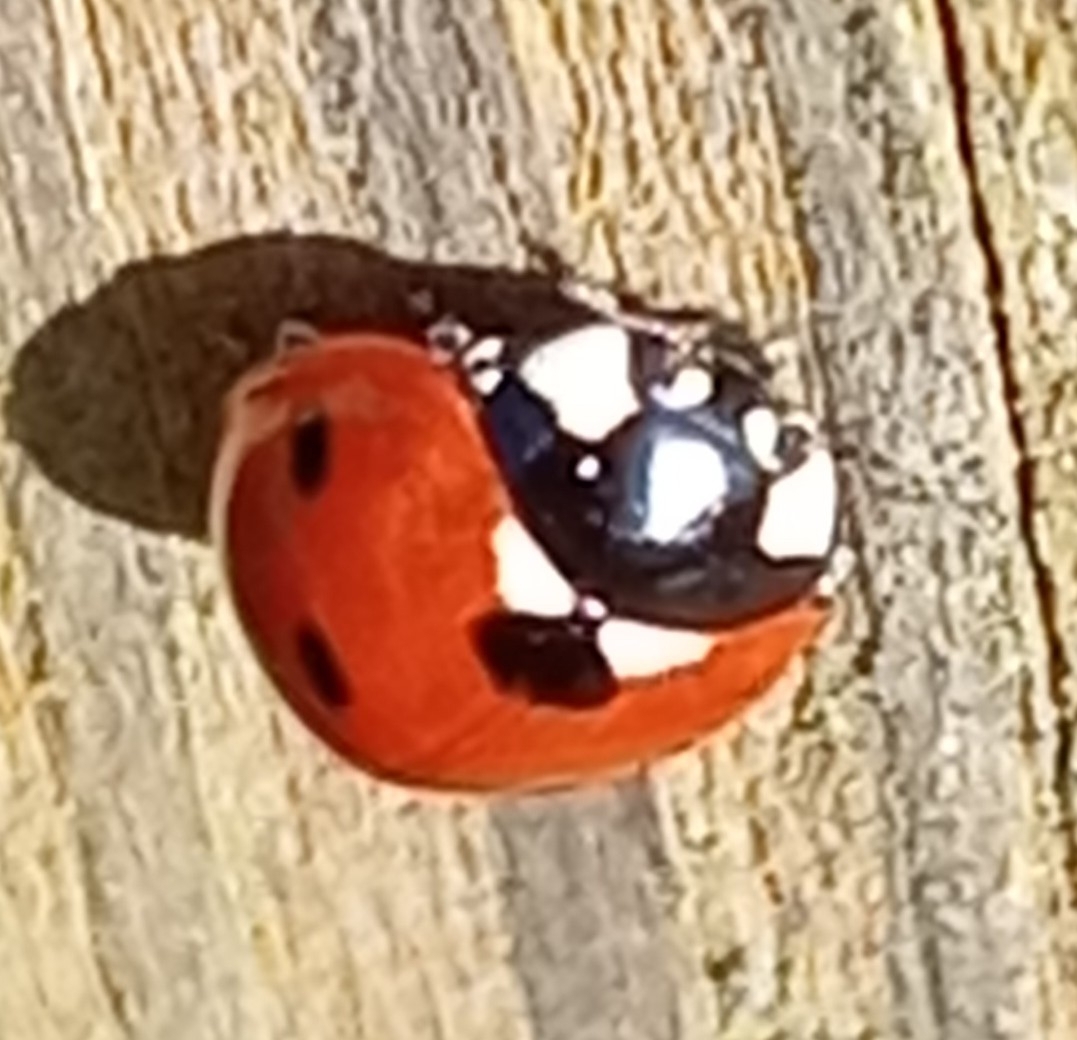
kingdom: Animalia
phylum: Arthropoda
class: Insecta
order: Coleoptera
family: Coccinellidae
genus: Coccinella
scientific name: Coccinella septempunctata
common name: Sevenspotted lady beetle
